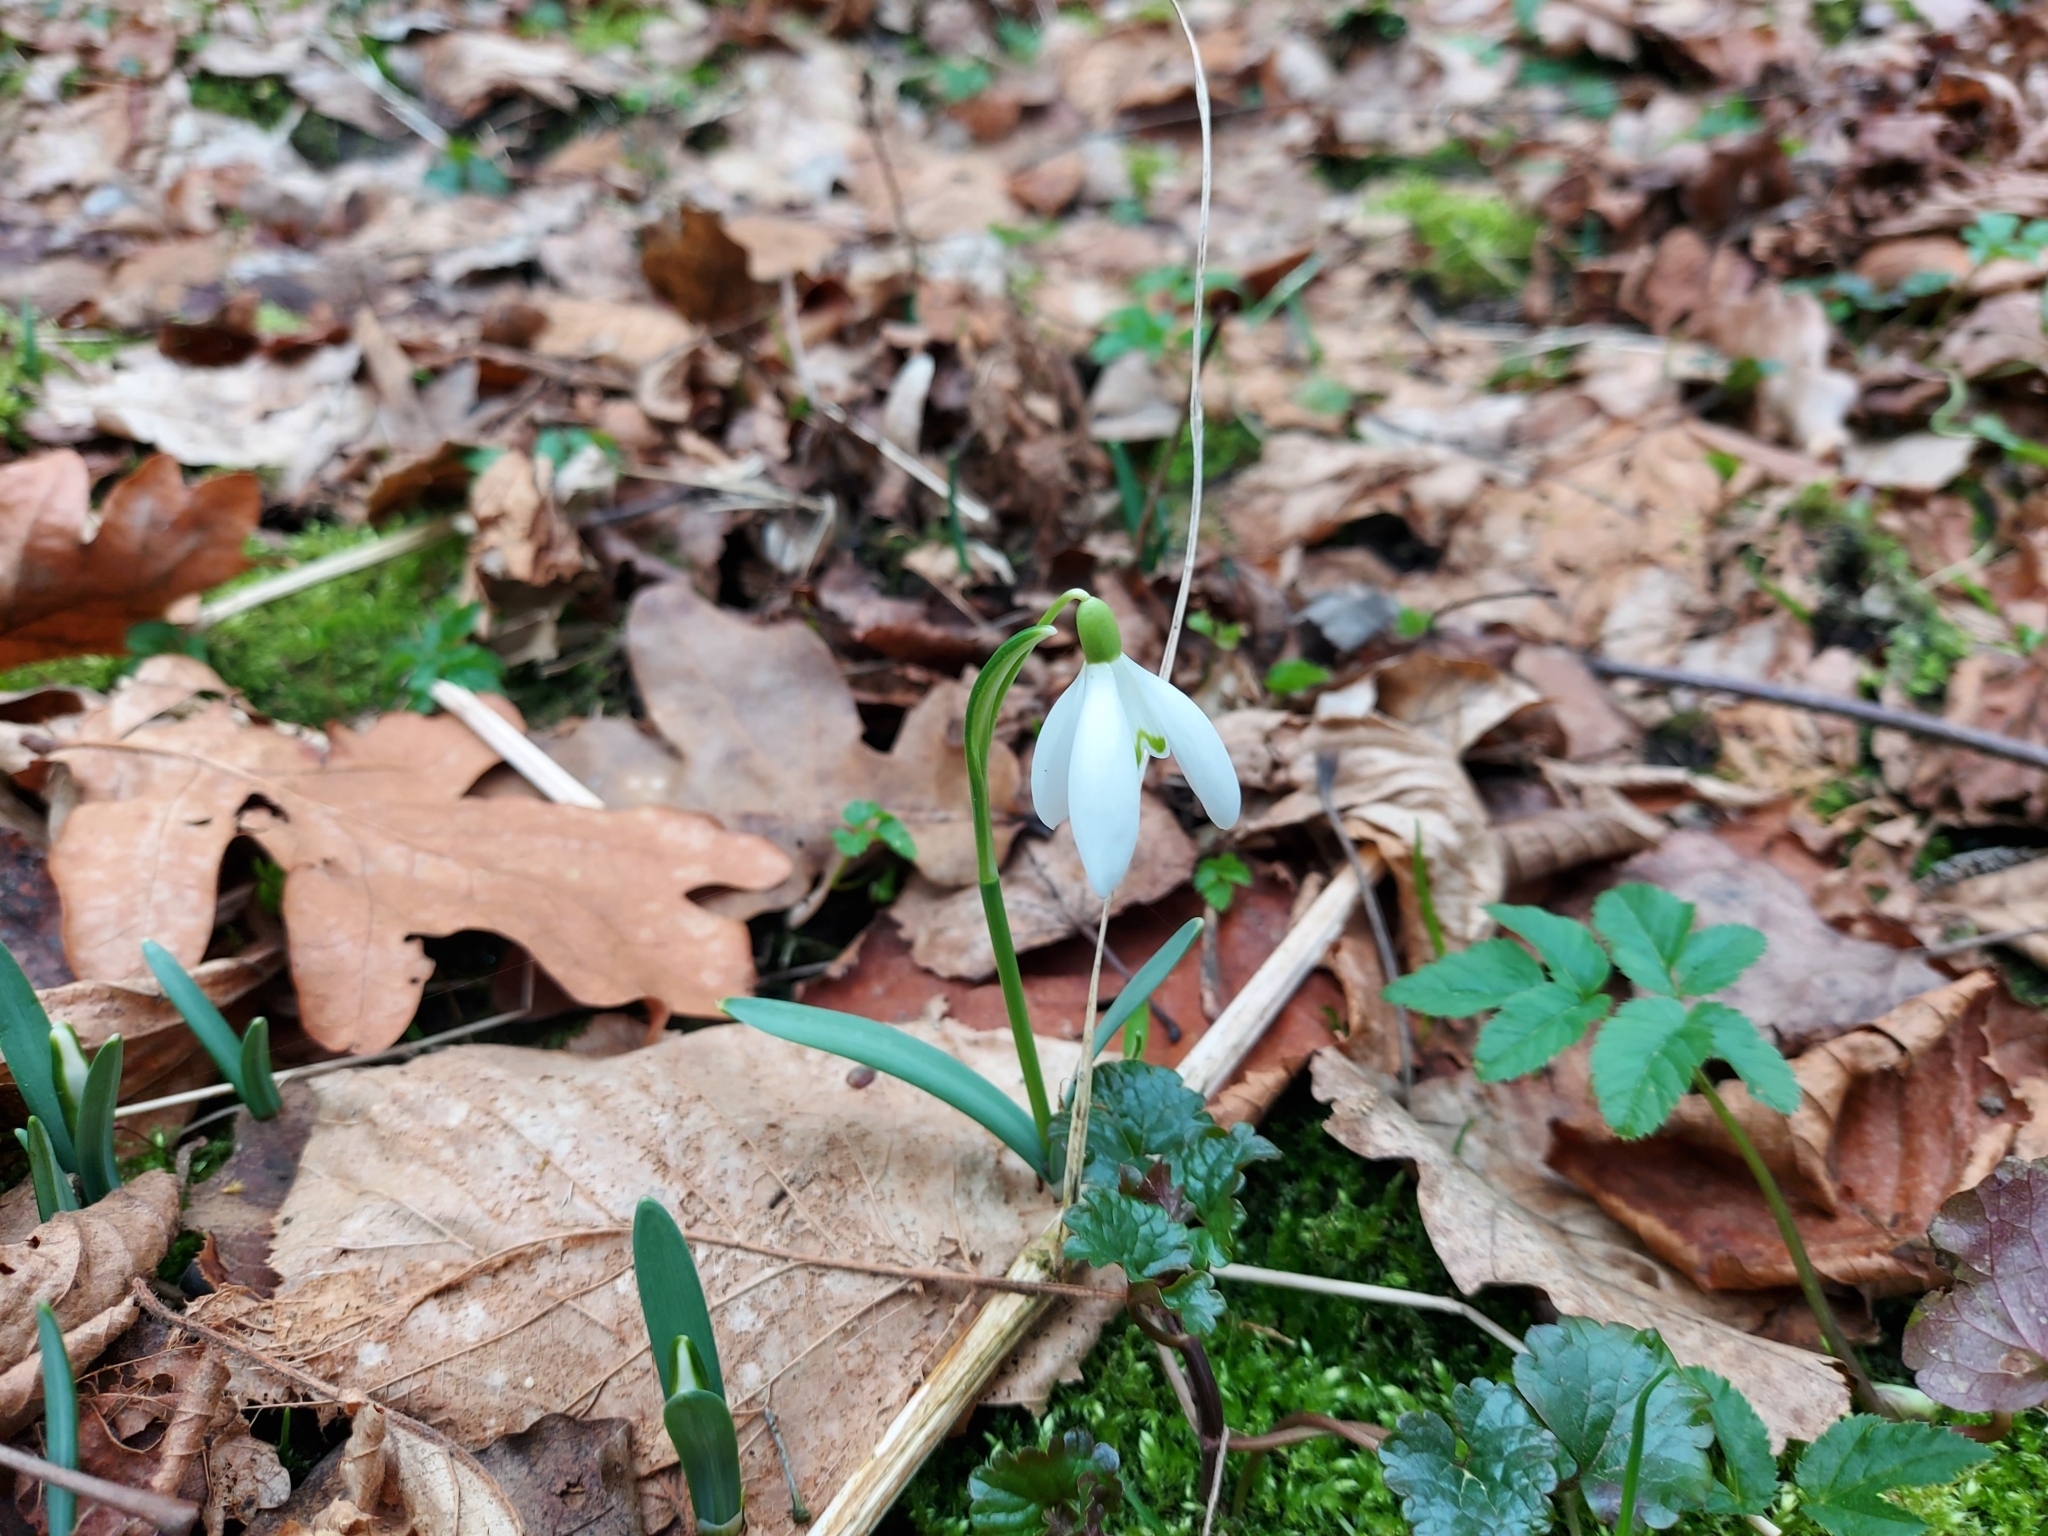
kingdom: Plantae
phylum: Tracheophyta
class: Liliopsida
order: Asparagales
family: Amaryllidaceae
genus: Galanthus
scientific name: Galanthus nivalis
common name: Snowdrop
